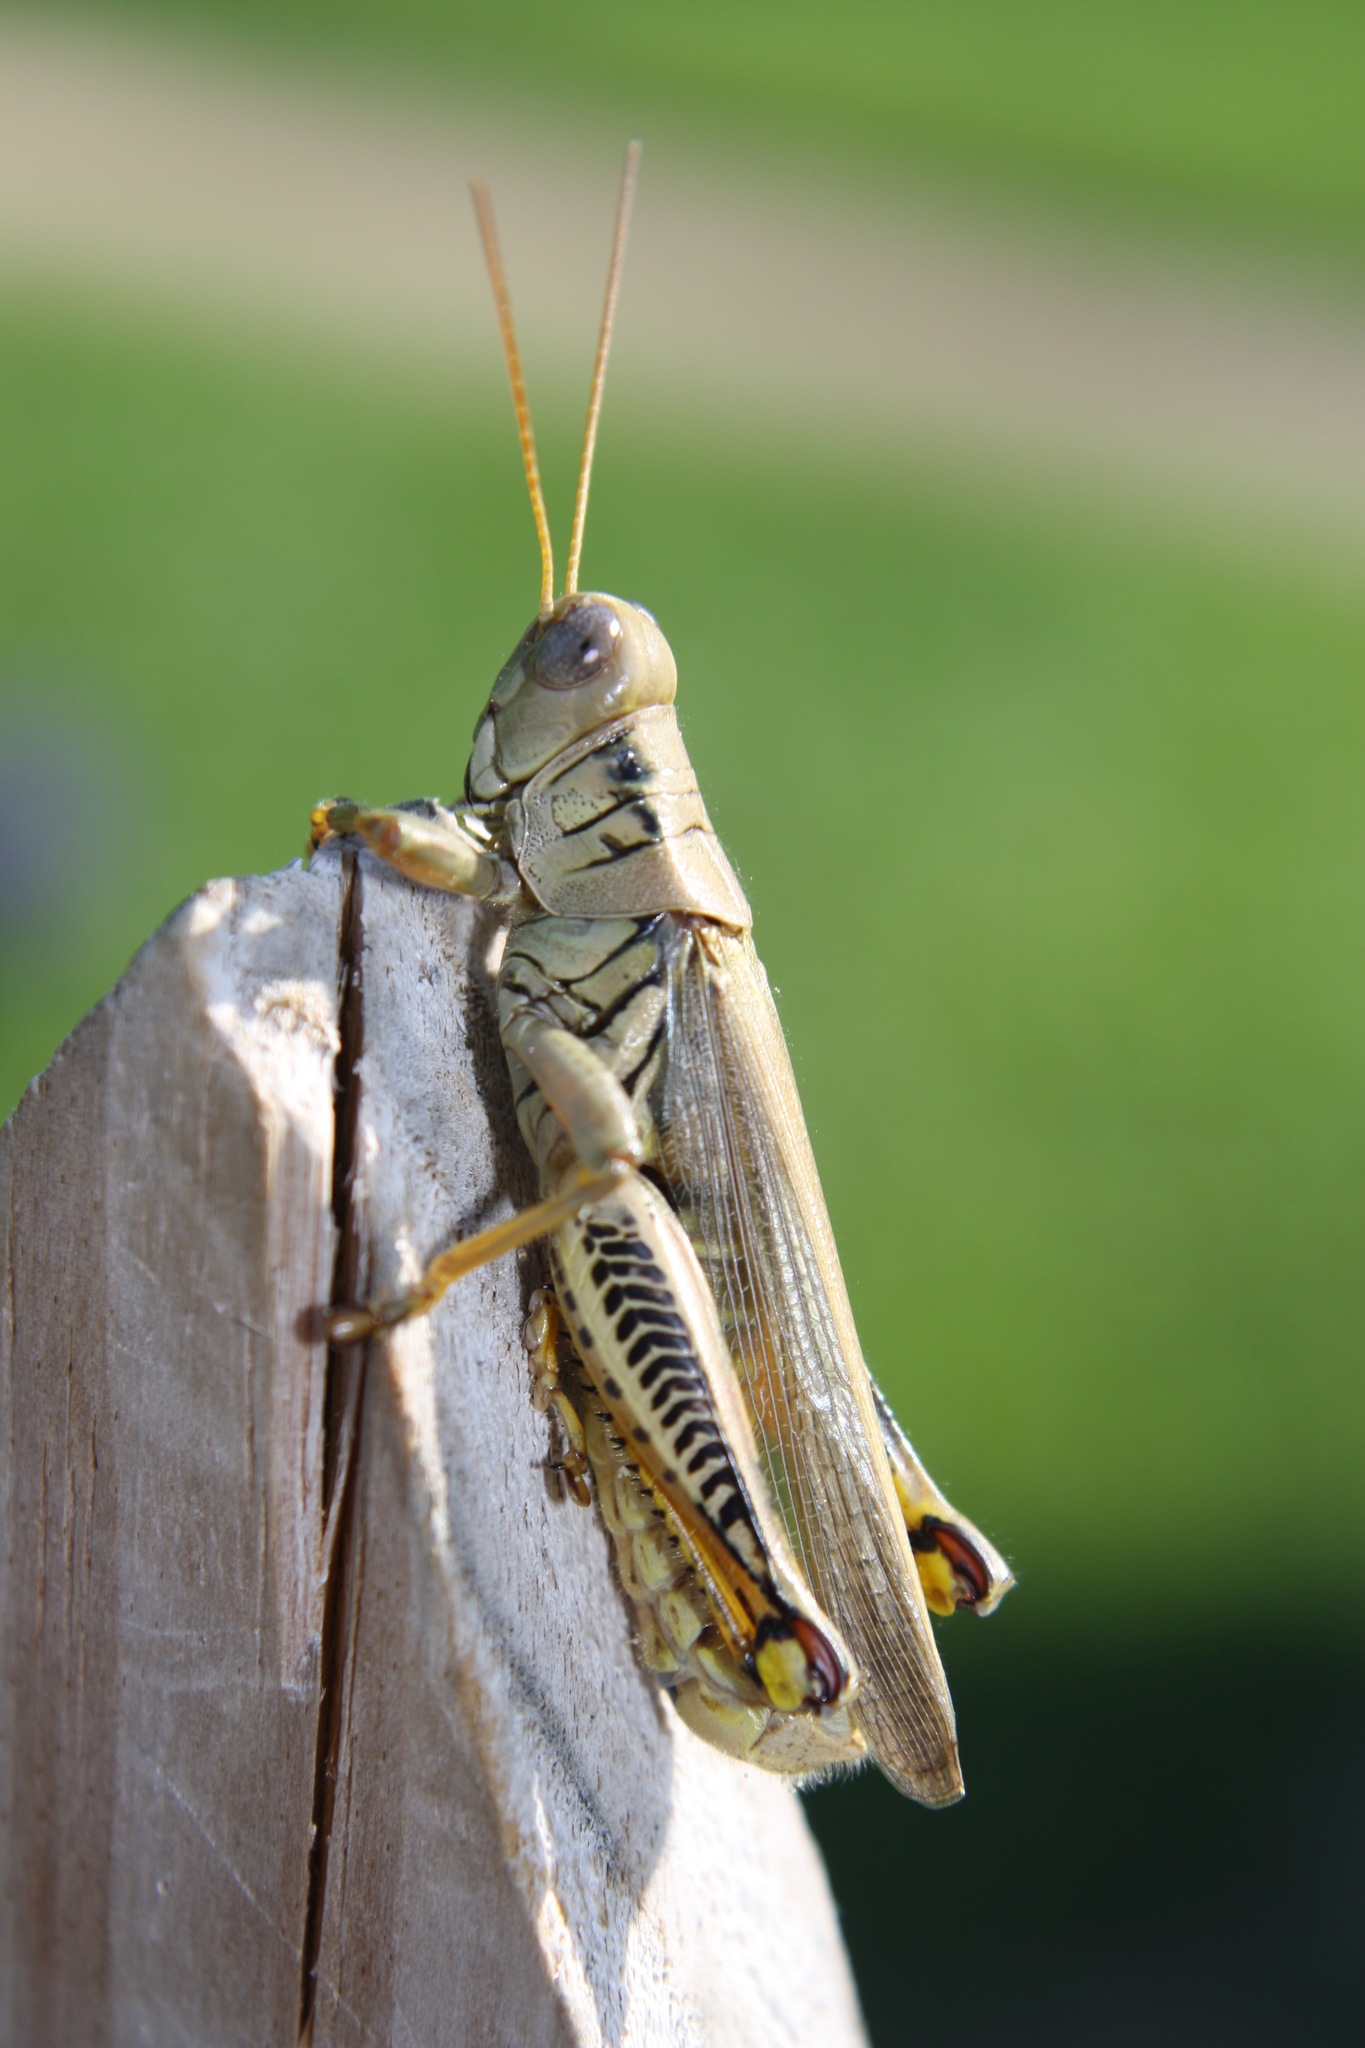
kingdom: Animalia
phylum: Arthropoda
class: Insecta
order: Orthoptera
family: Acrididae
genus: Melanoplus
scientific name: Melanoplus differentialis
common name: Differential grasshopper
